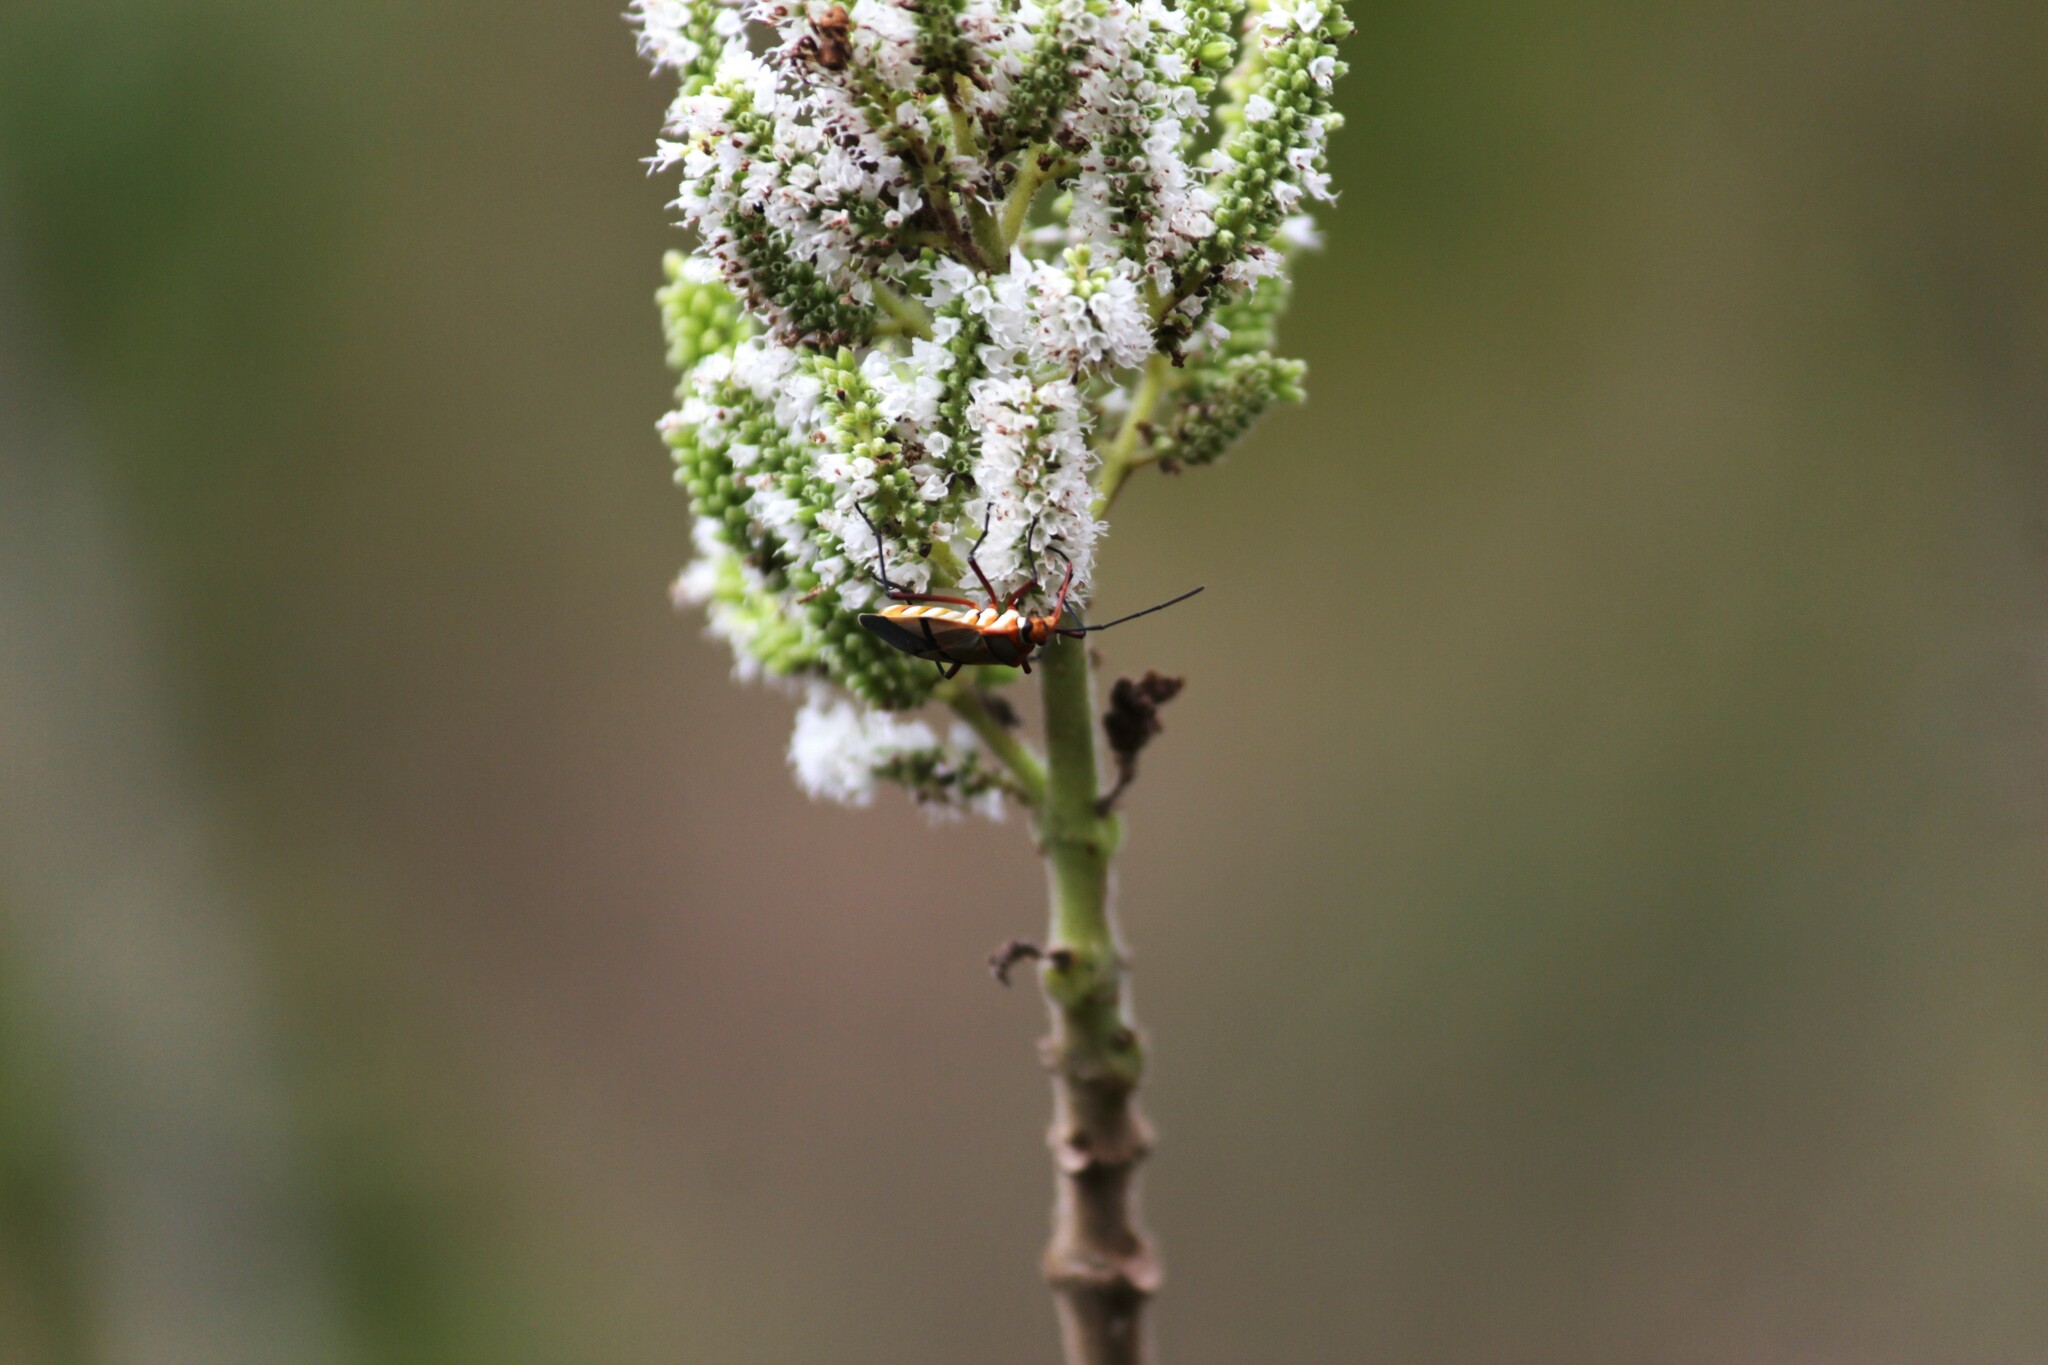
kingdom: Animalia
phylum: Arthropoda
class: Insecta
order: Hemiptera
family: Pyrrhocoridae
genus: Dysdercus
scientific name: Dysdercus
